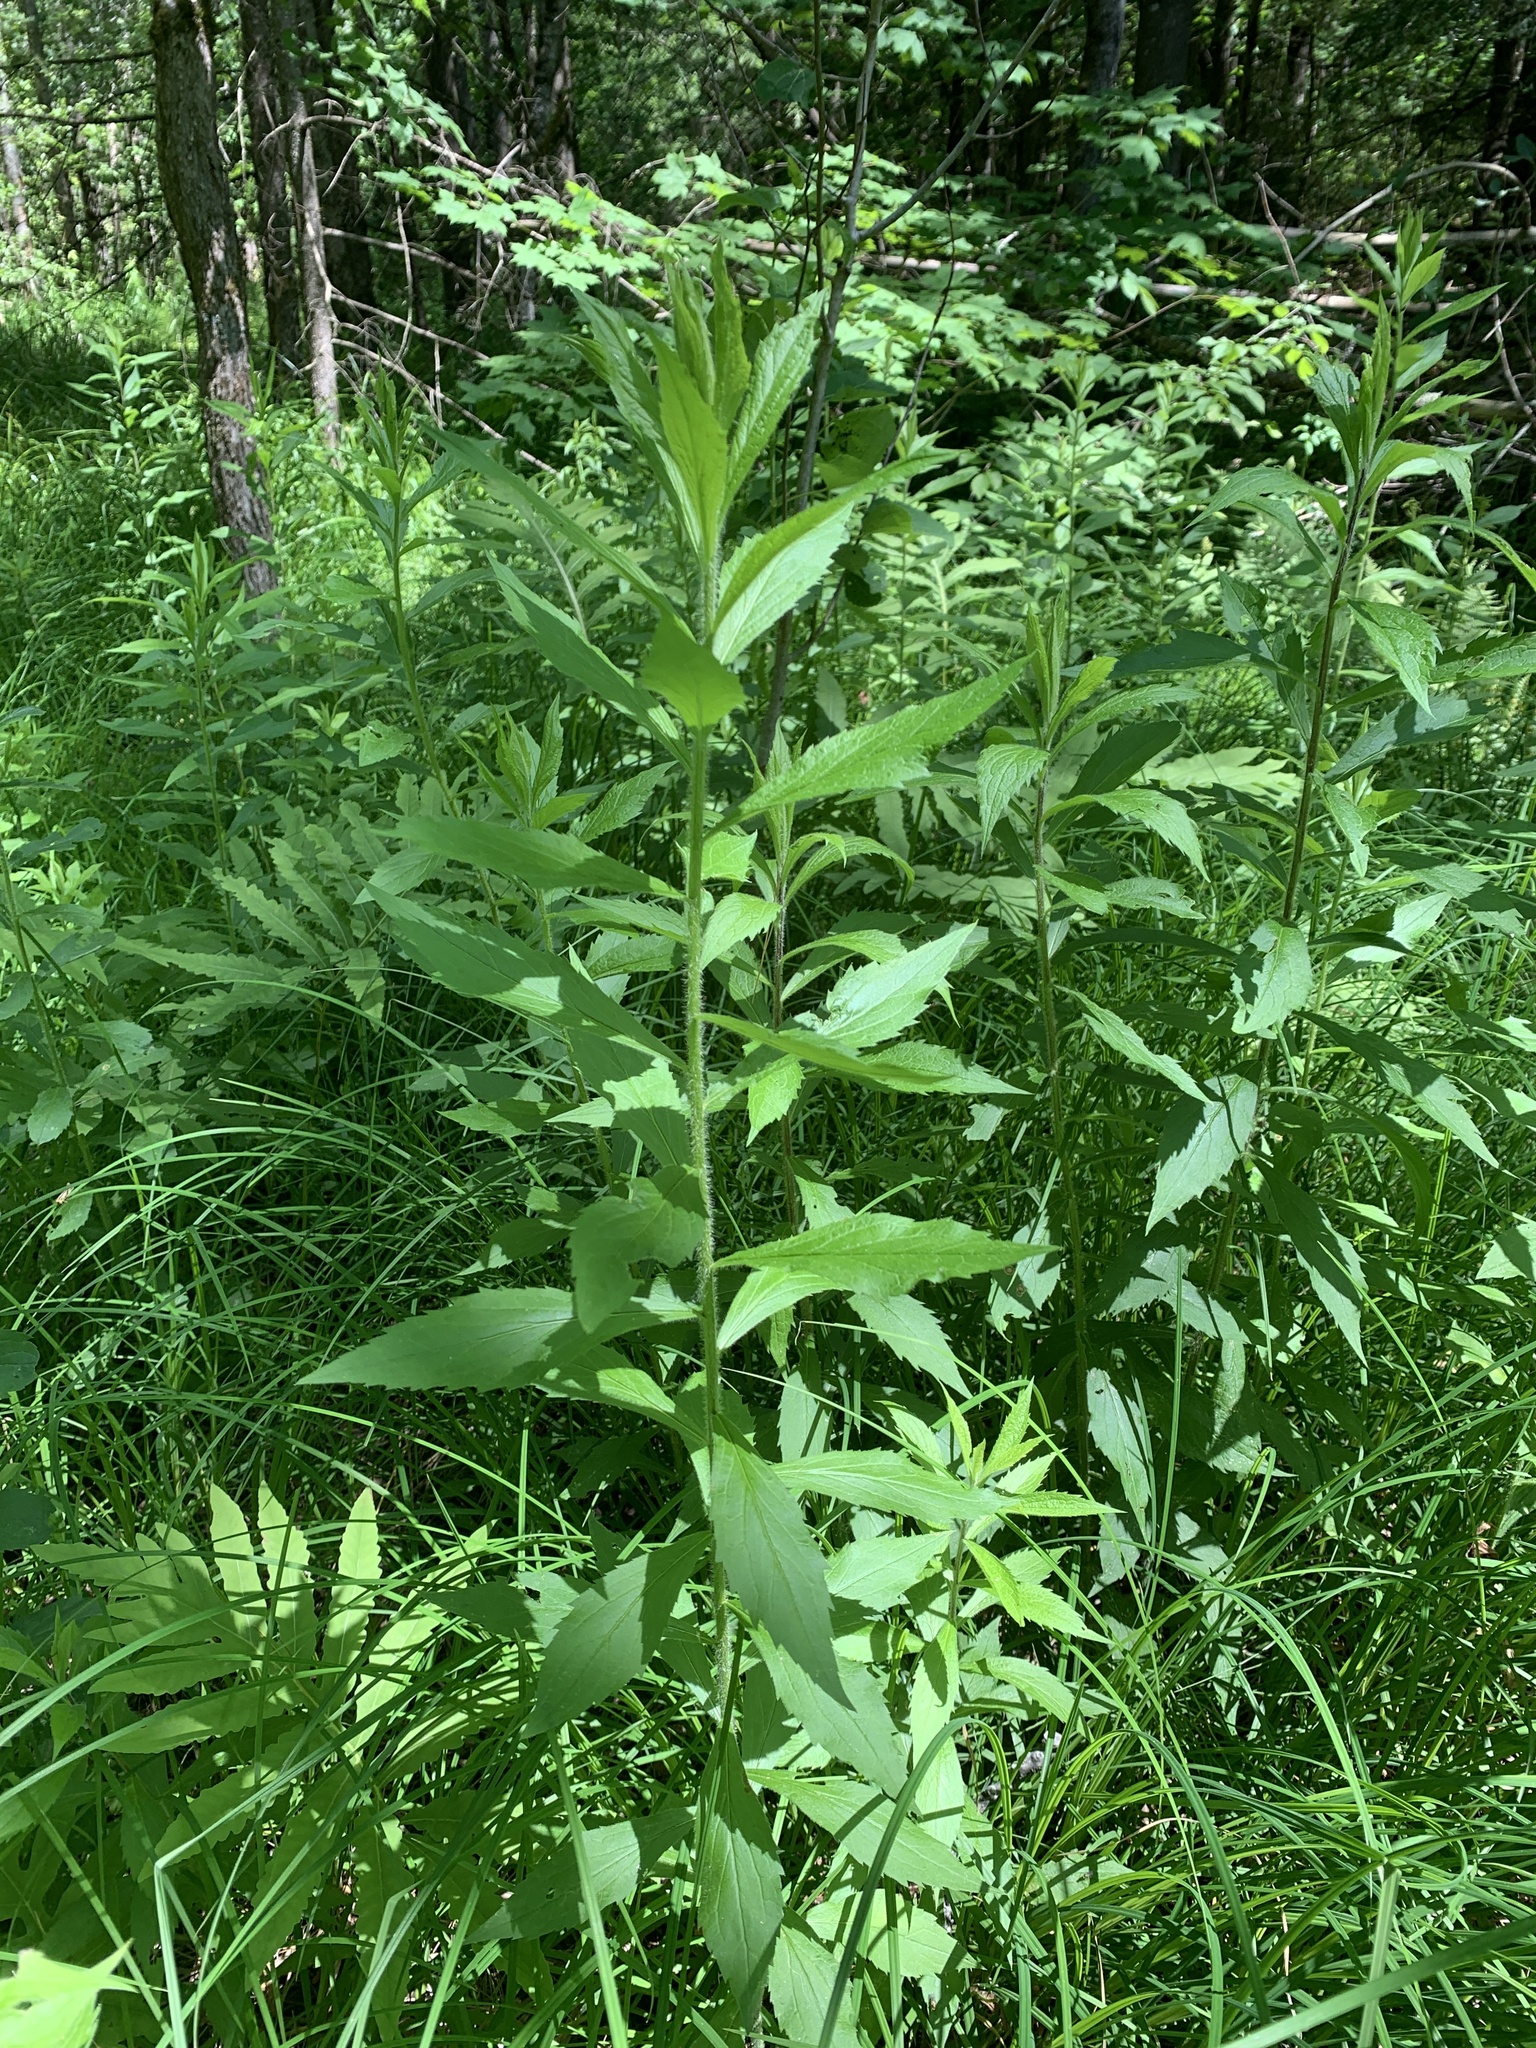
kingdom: Plantae
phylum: Tracheophyta
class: Magnoliopsida
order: Asterales
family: Asteraceae
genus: Solidago
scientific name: Solidago rugosa
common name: Rough-stemmed goldenrod
